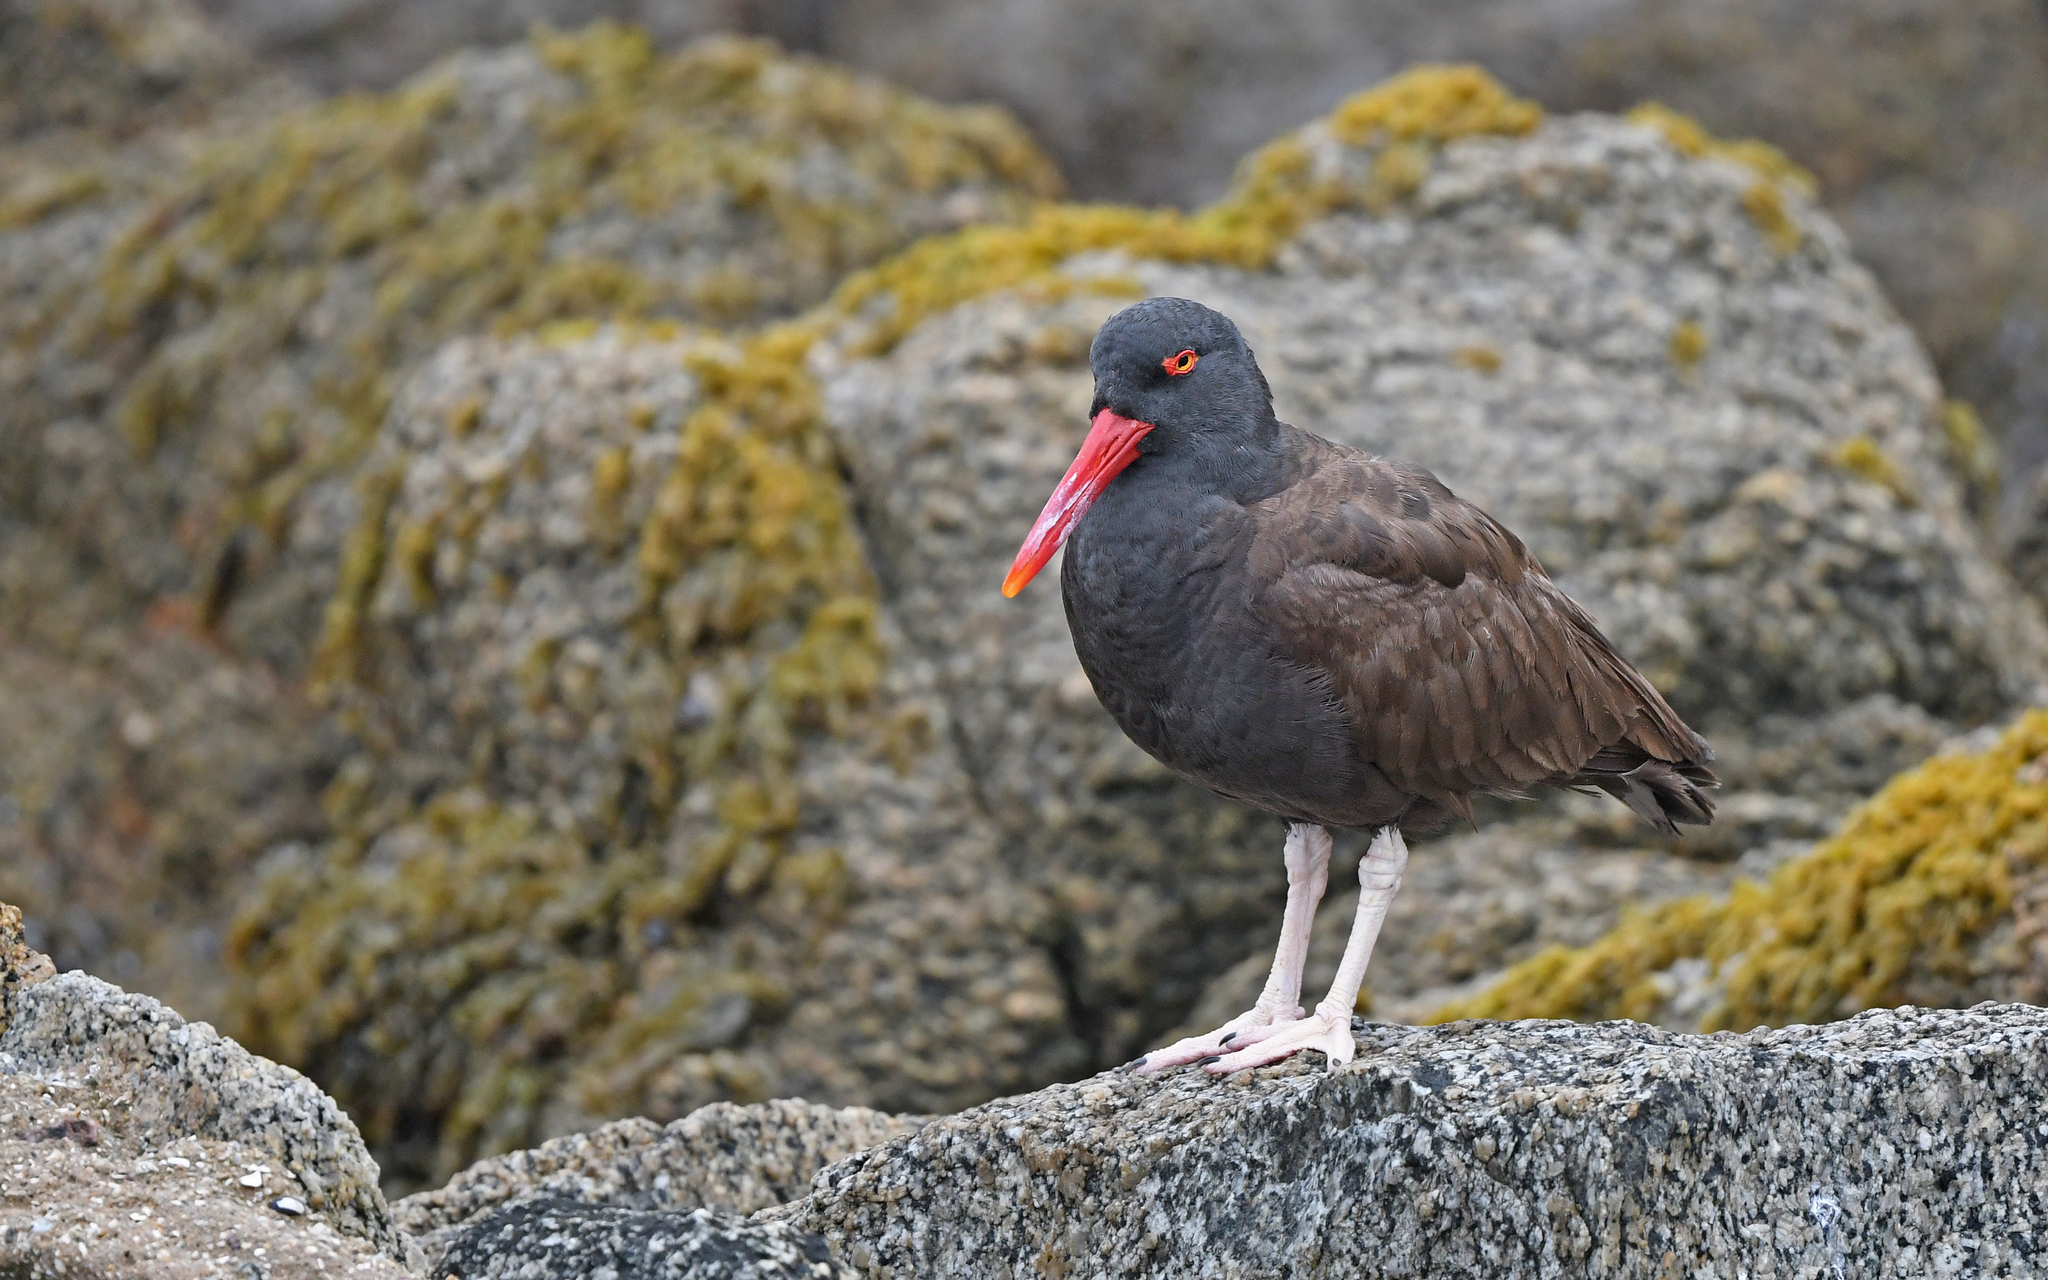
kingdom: Animalia
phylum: Chordata
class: Aves
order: Charadriiformes
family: Haematopodidae
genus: Haematopus
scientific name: Haematopus ater
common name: Blackish oystercatcher
